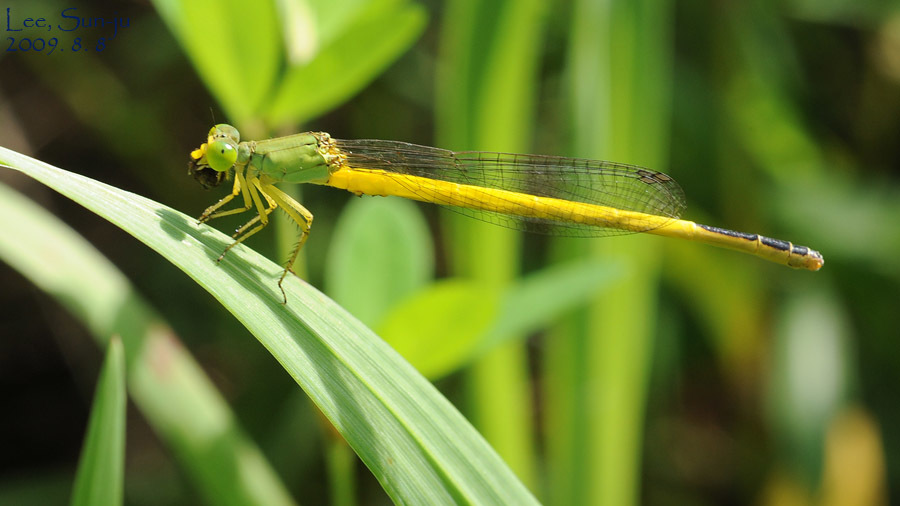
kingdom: Animalia
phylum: Arthropoda
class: Insecta
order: Odonata
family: Coenagrionidae
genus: Ceriagrion
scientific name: Ceriagrion melanurum
